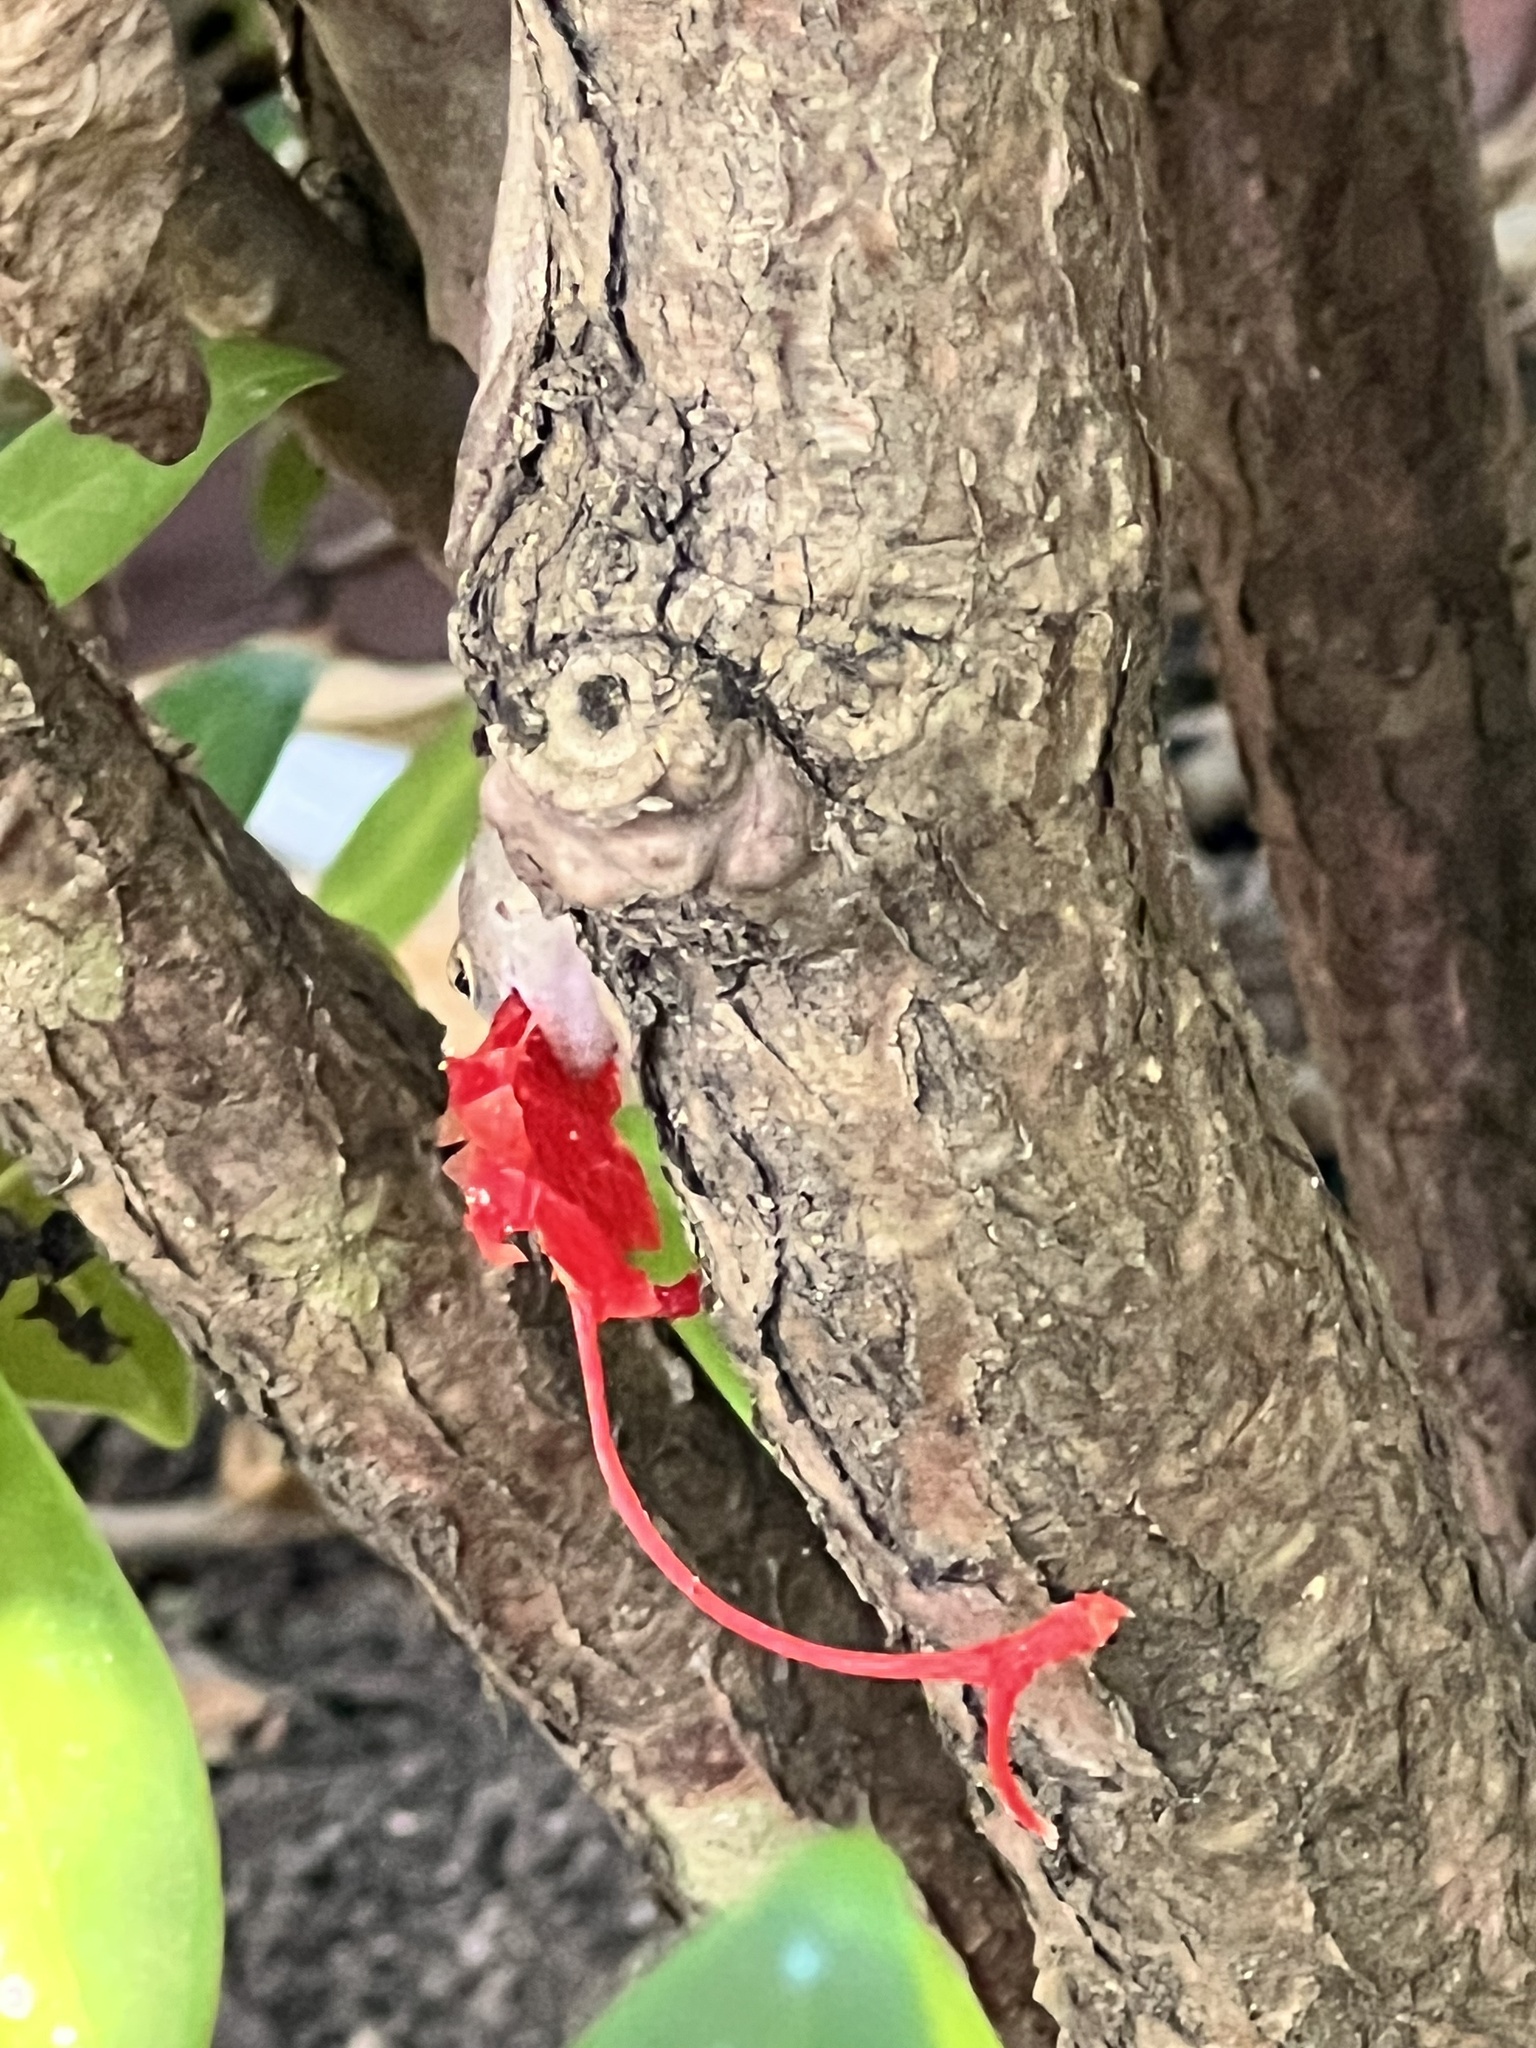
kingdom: Animalia
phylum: Chordata
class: Squamata
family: Dactyloidae
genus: Anolis
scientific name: Anolis sagrei
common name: Brown anole
